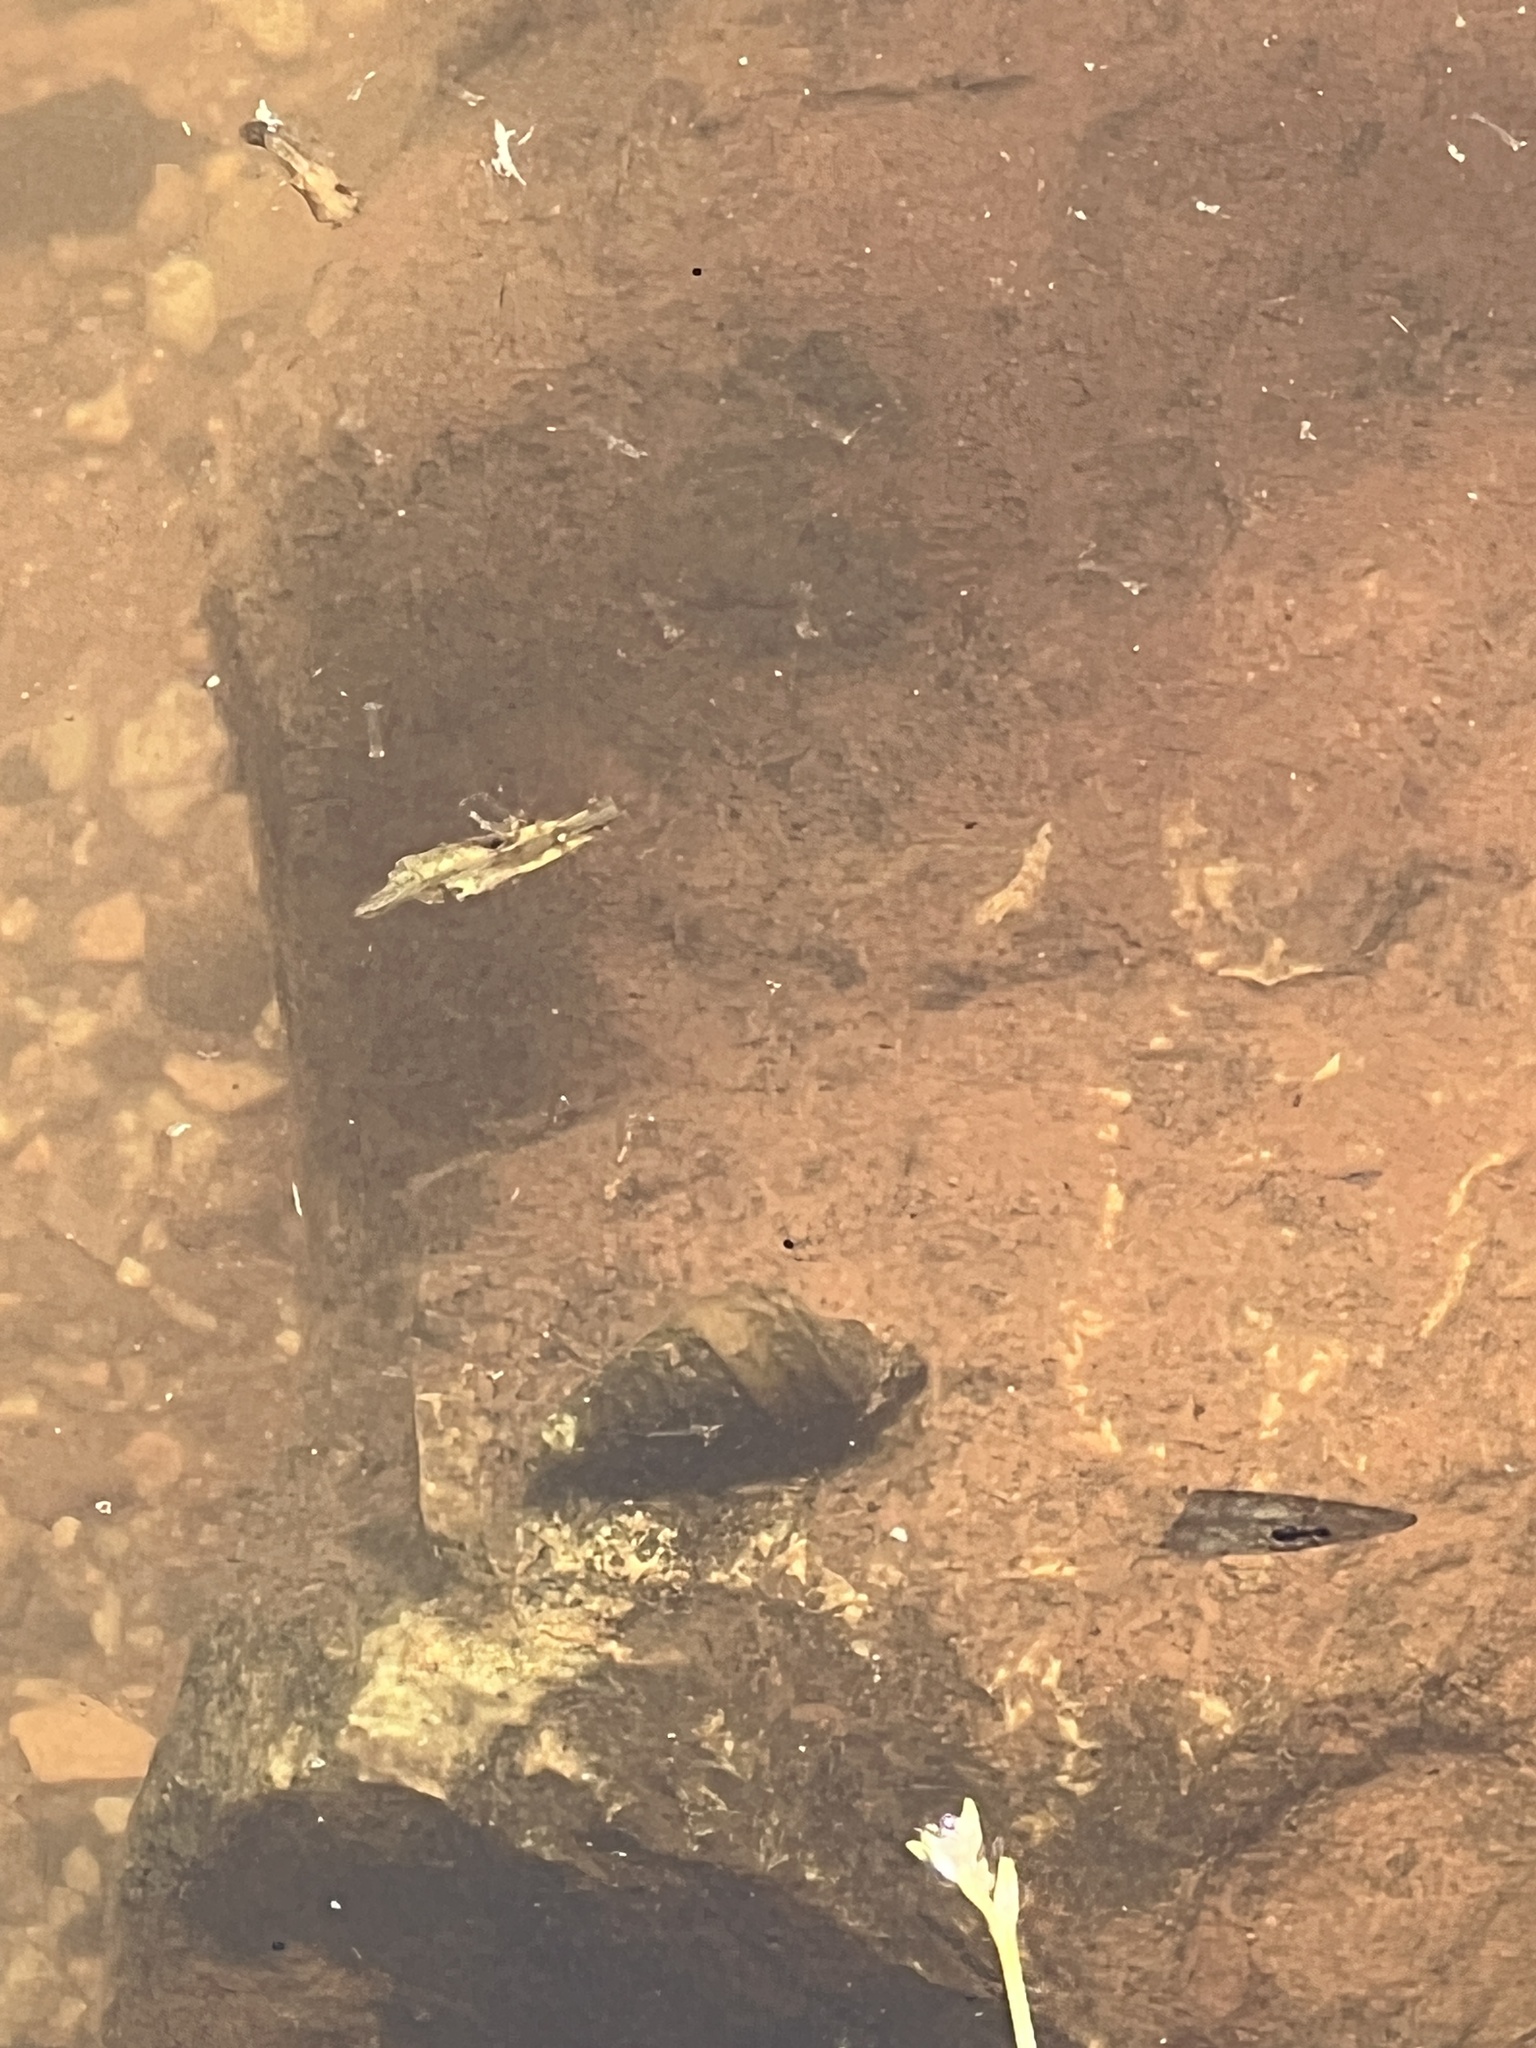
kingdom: Animalia
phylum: Mollusca
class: Gastropoda
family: Pleuroceridae
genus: Pleurocera
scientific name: Pleurocera prasinata
